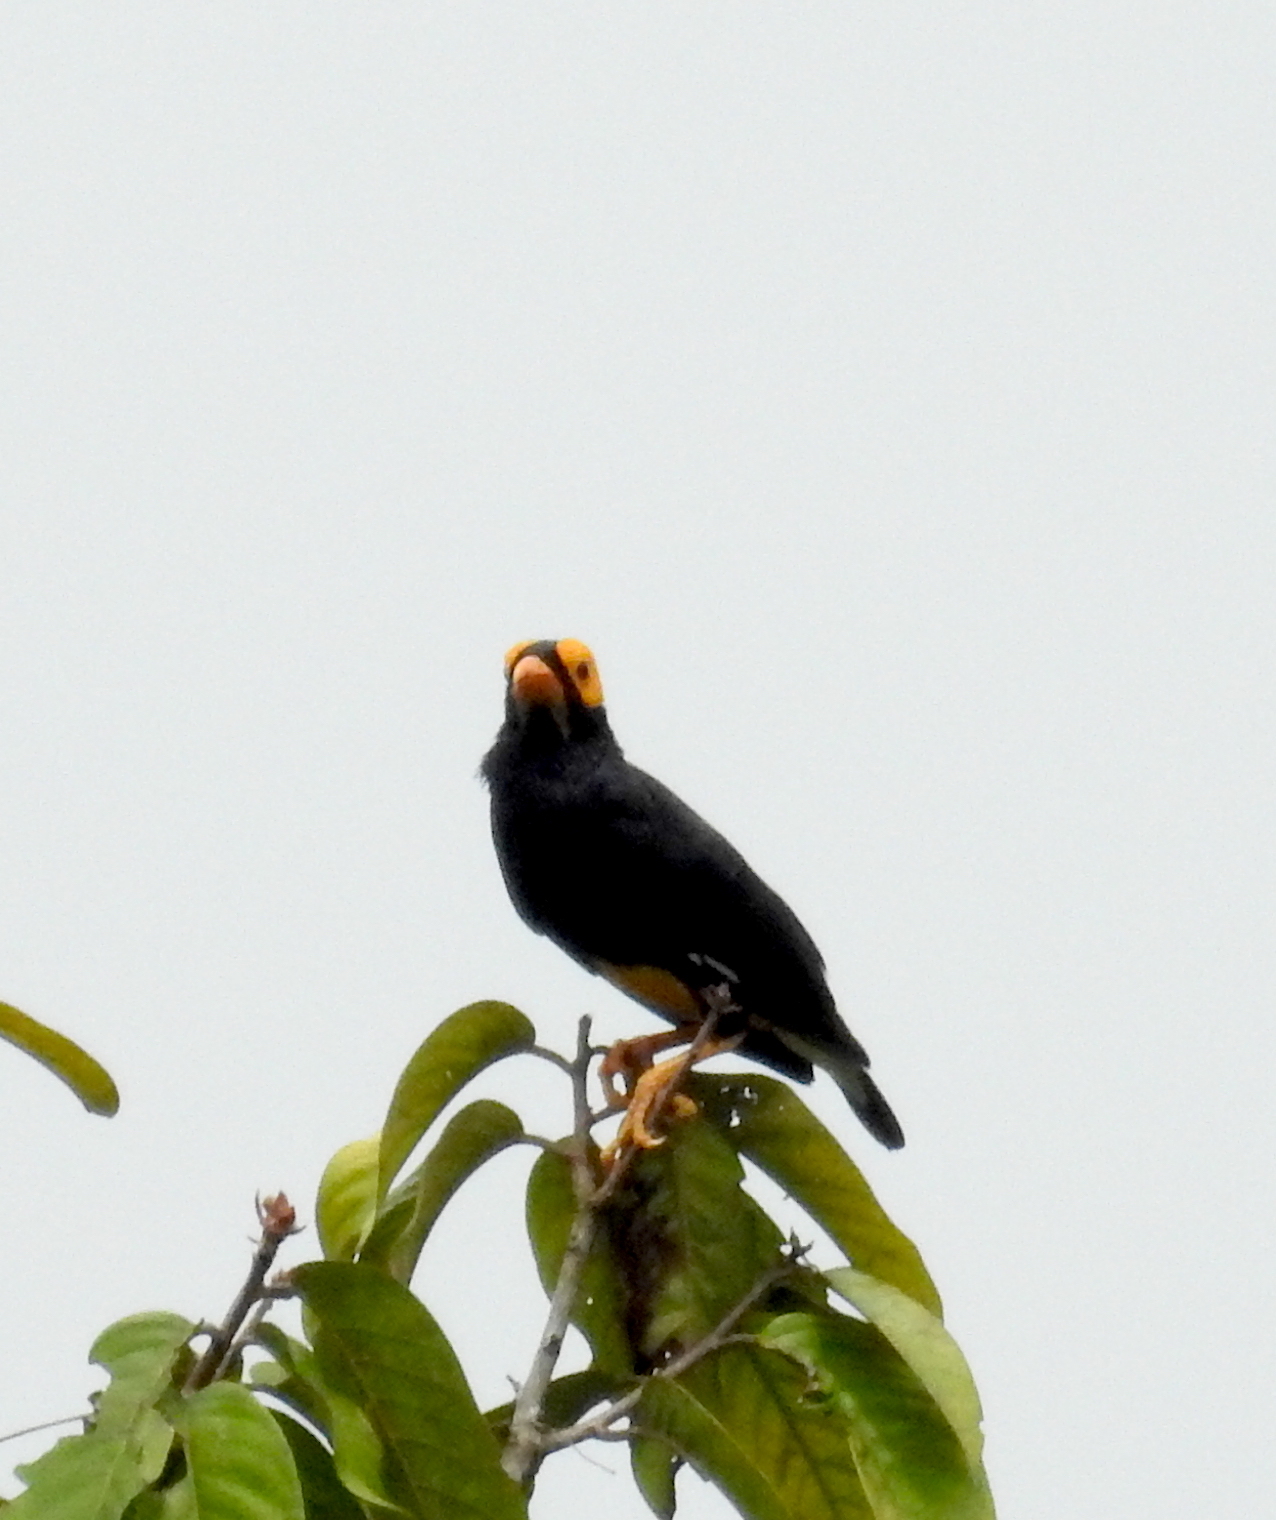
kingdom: Animalia
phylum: Chordata
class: Aves
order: Passeriformes
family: Sturnidae
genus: Mino
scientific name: Mino dumontii
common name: Yellow-faced myna
